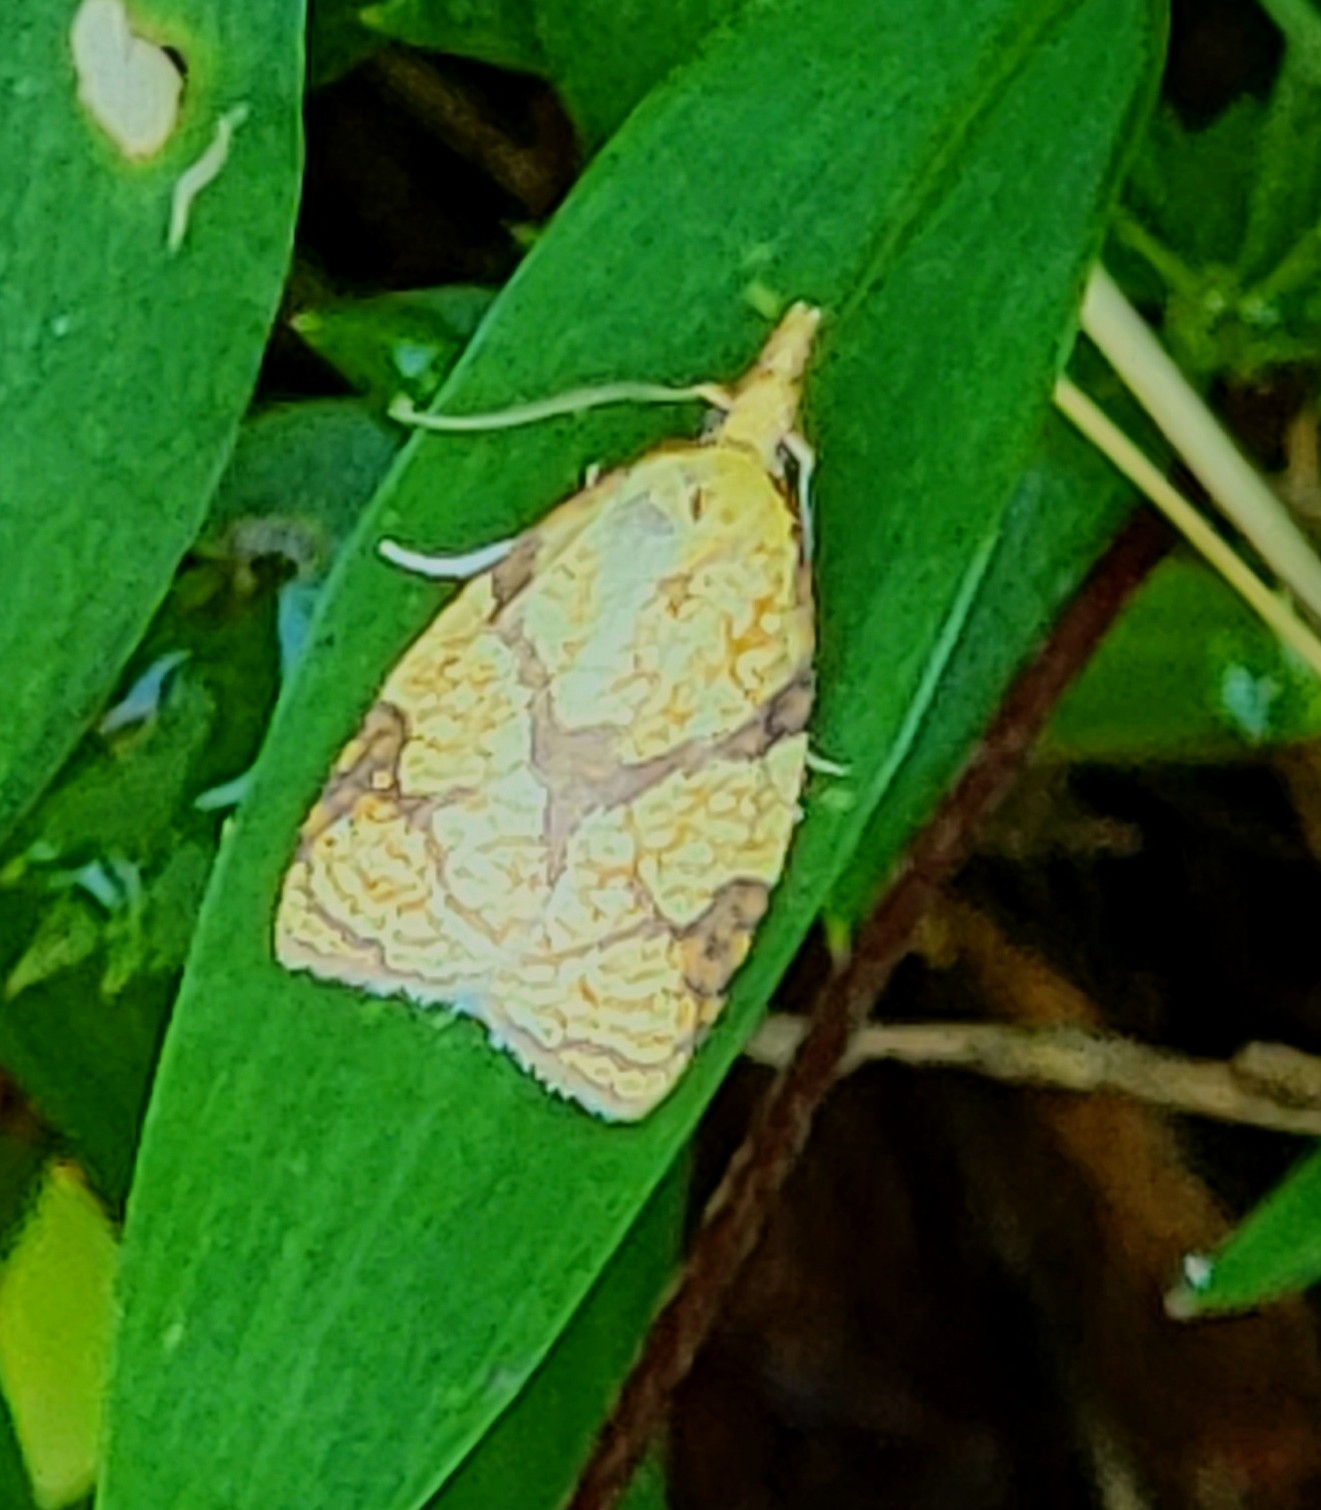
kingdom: Animalia
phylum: Arthropoda
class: Insecta
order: Lepidoptera
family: Tortricidae
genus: Cenopis
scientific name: Cenopis reticulatana
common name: Reticulated fruitworm moth
